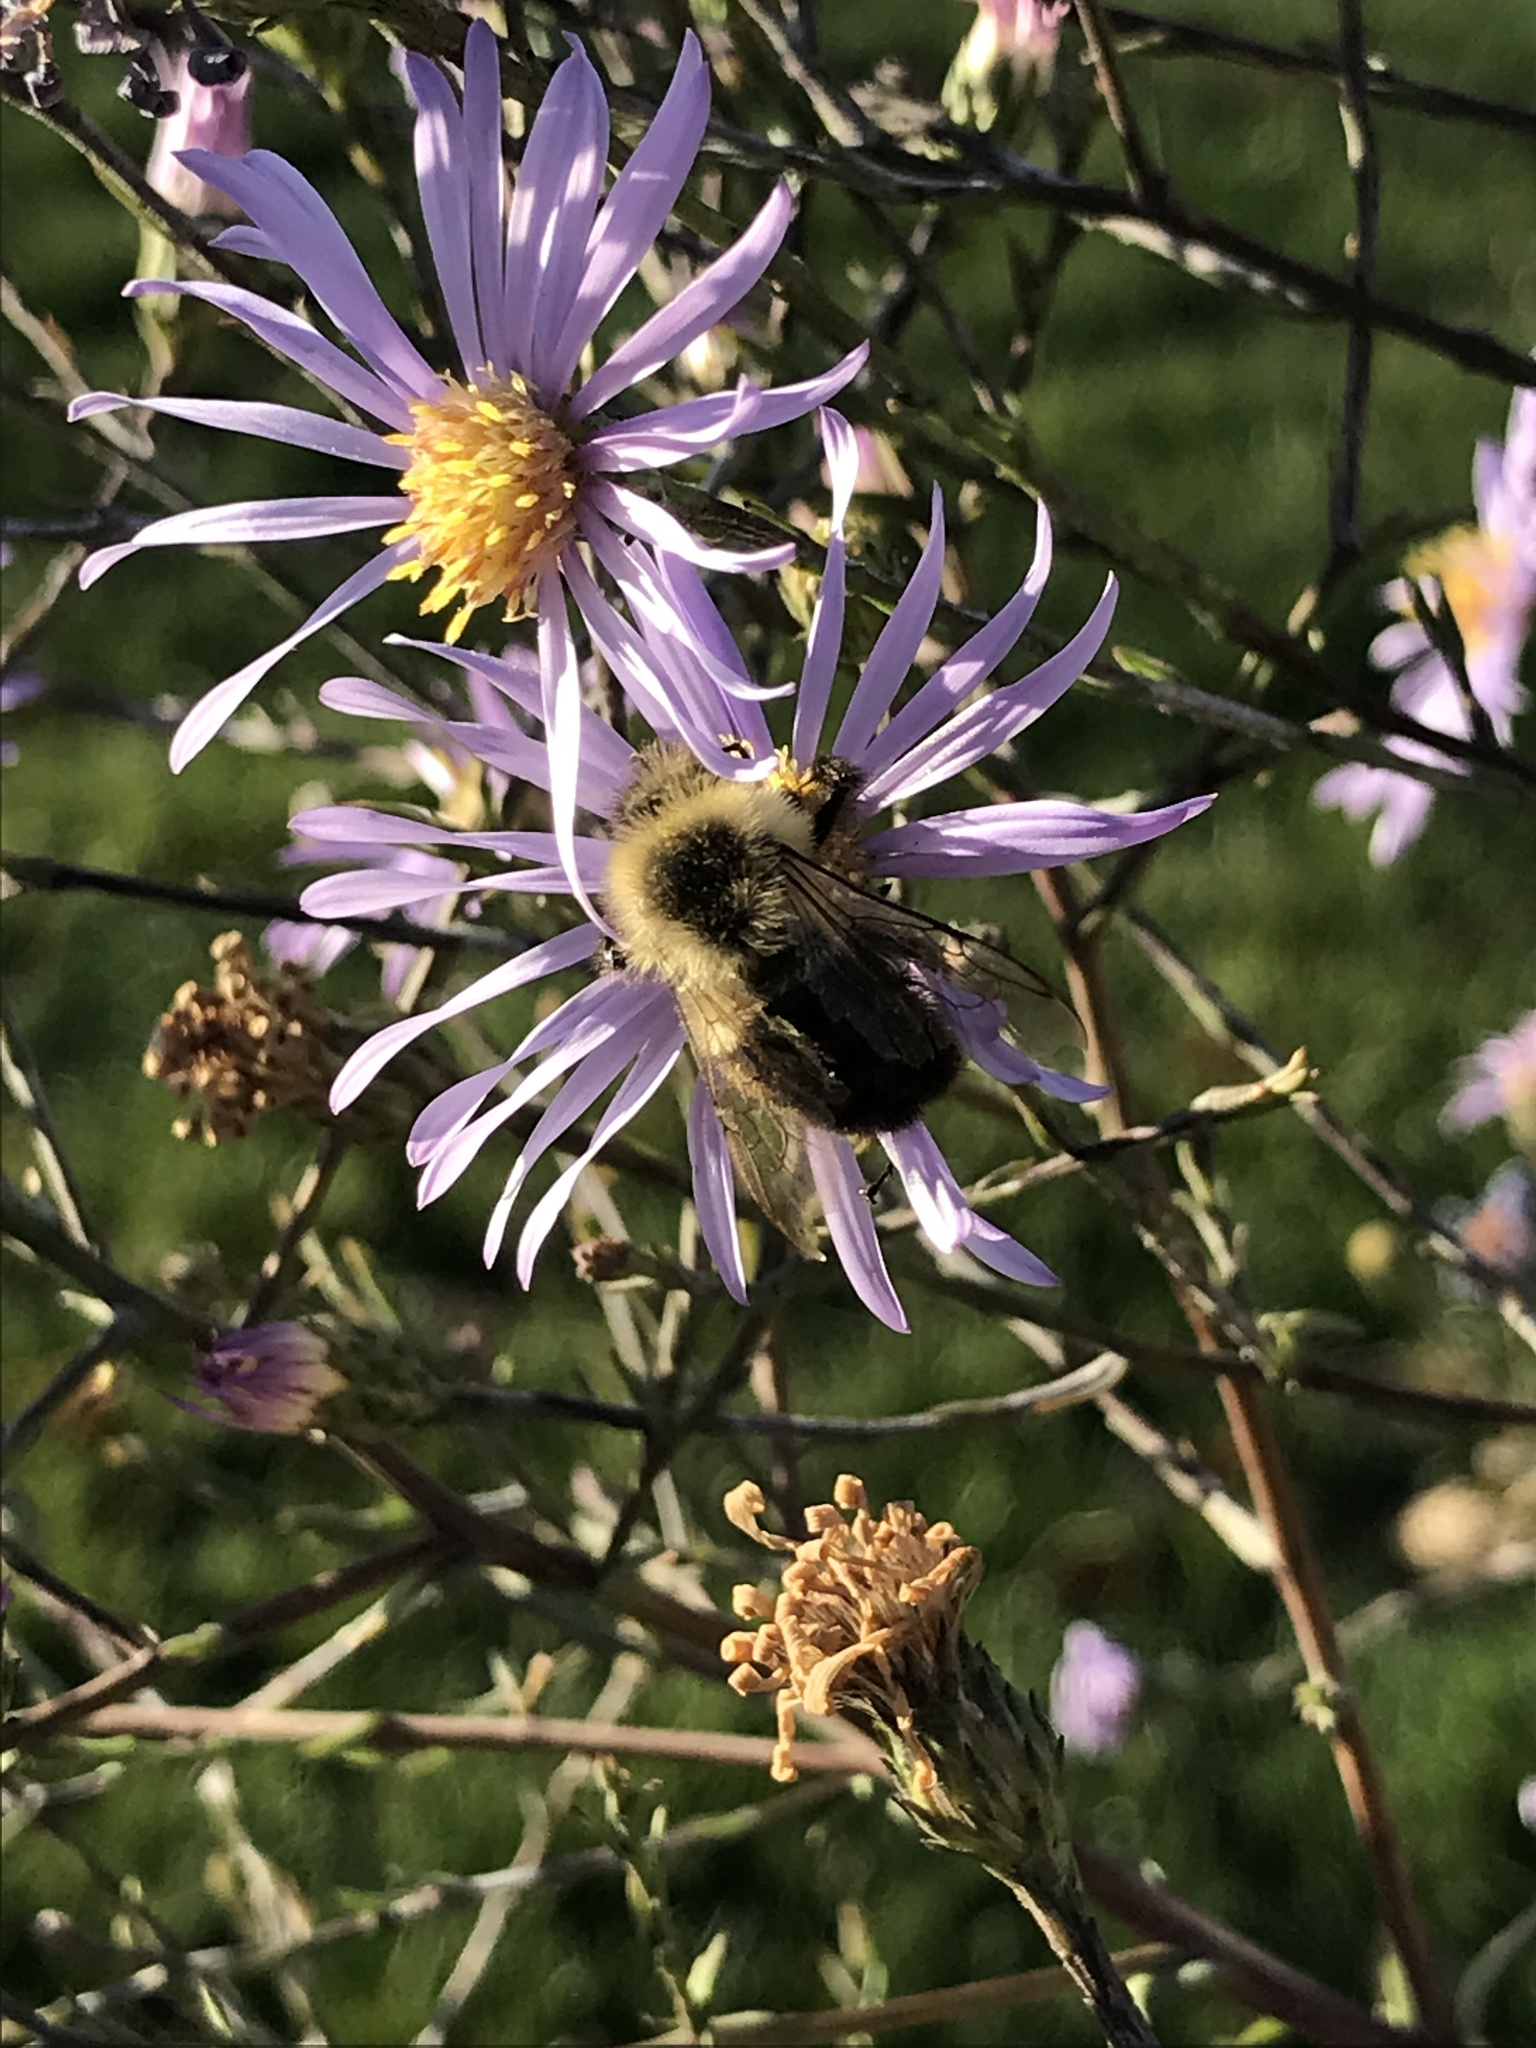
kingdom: Animalia
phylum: Arthropoda
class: Insecta
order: Hymenoptera
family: Apidae
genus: Bombus
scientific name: Bombus impatiens
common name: Common eastern bumble bee
